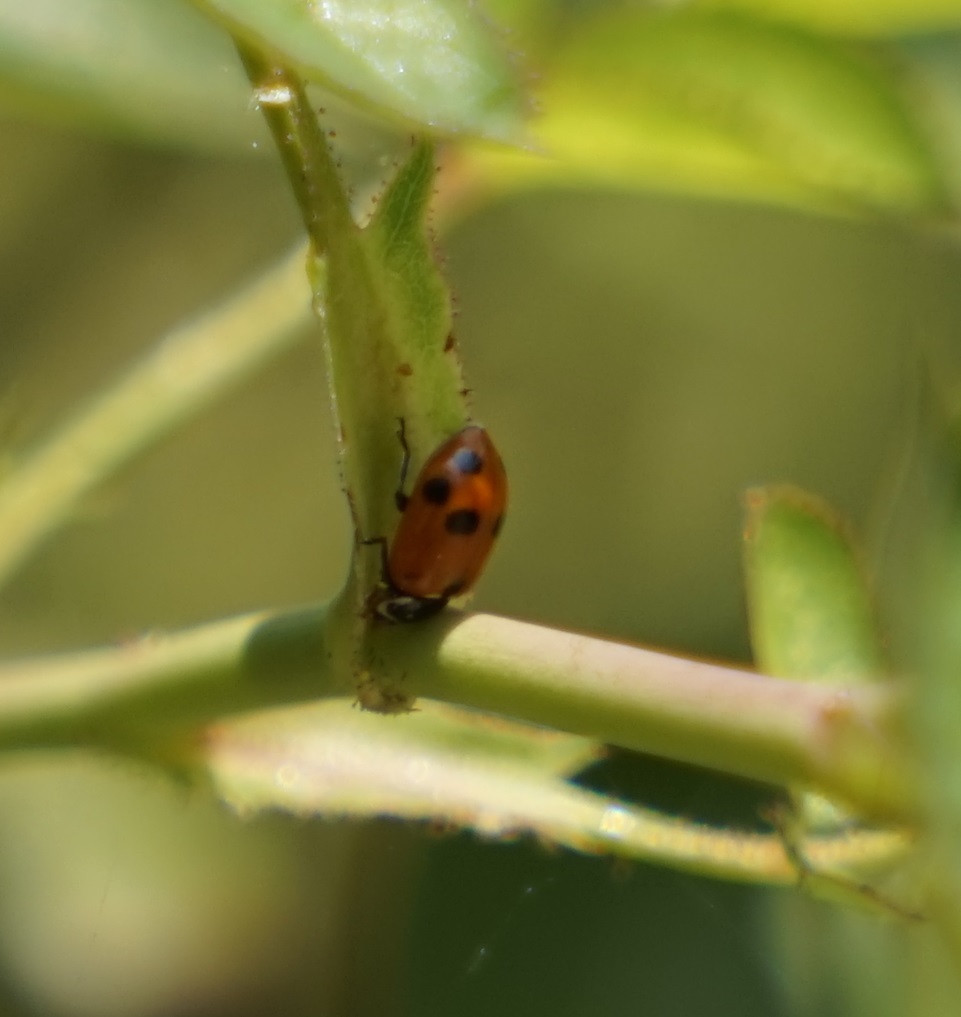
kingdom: Animalia
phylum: Arthropoda
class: Insecta
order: Coleoptera
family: Coccinellidae
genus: Hippodamia
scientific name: Hippodamia variegata
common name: Ladybird beetle
